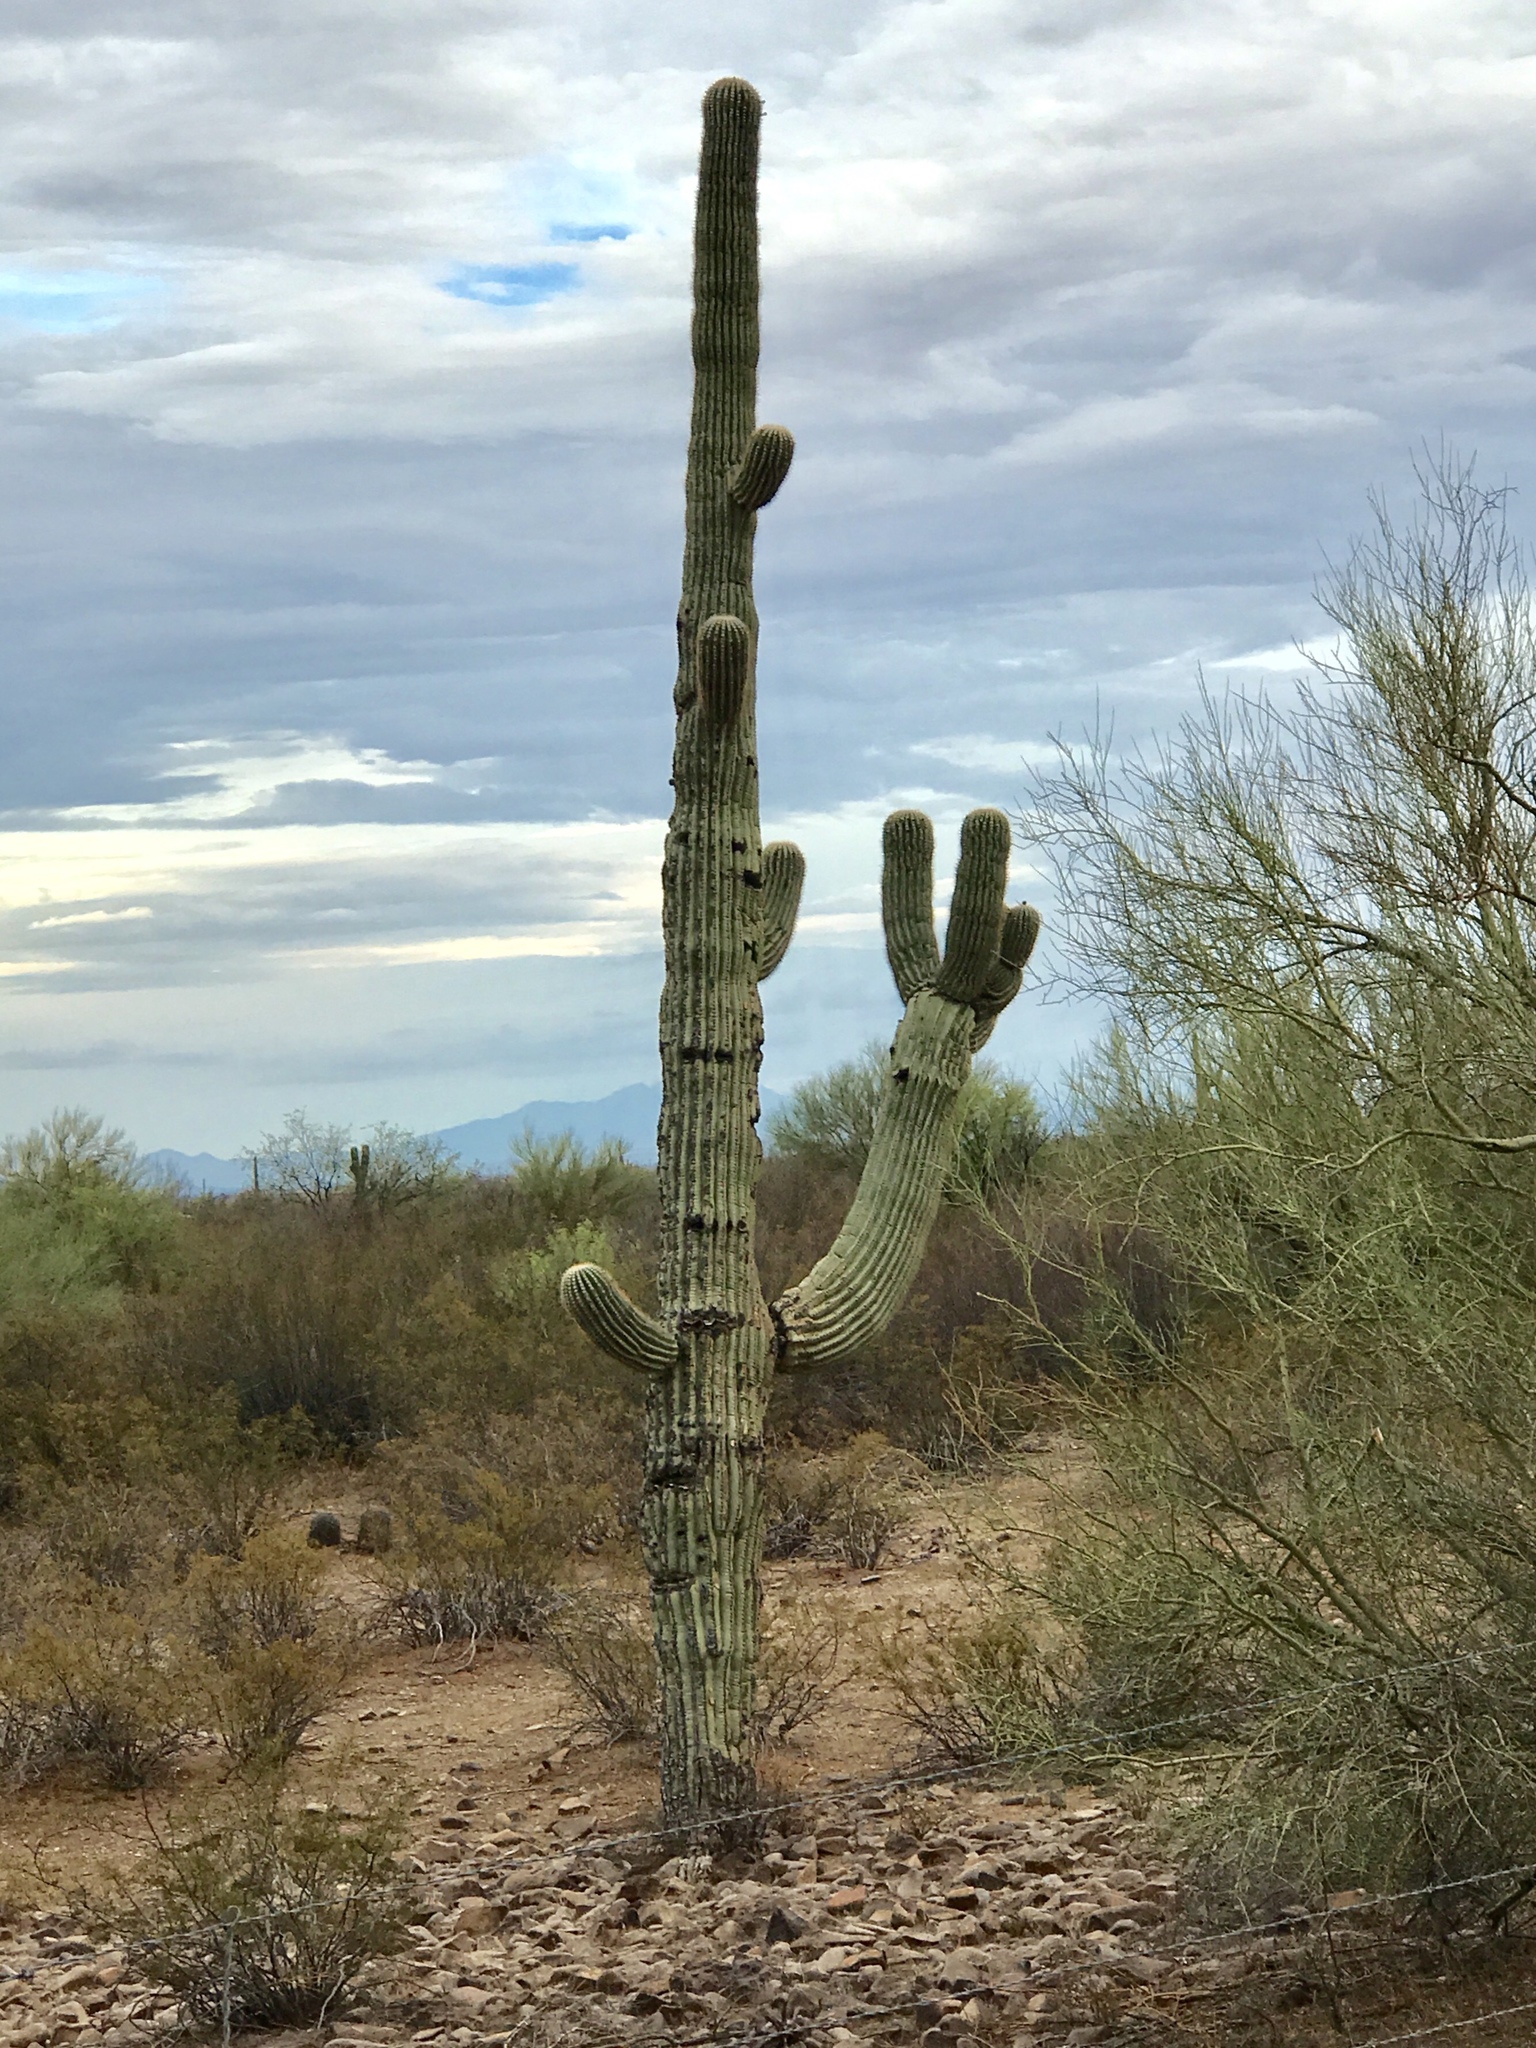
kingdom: Plantae
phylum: Tracheophyta
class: Magnoliopsida
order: Caryophyllales
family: Cactaceae
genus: Carnegiea
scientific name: Carnegiea gigantea
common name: Saguaro
